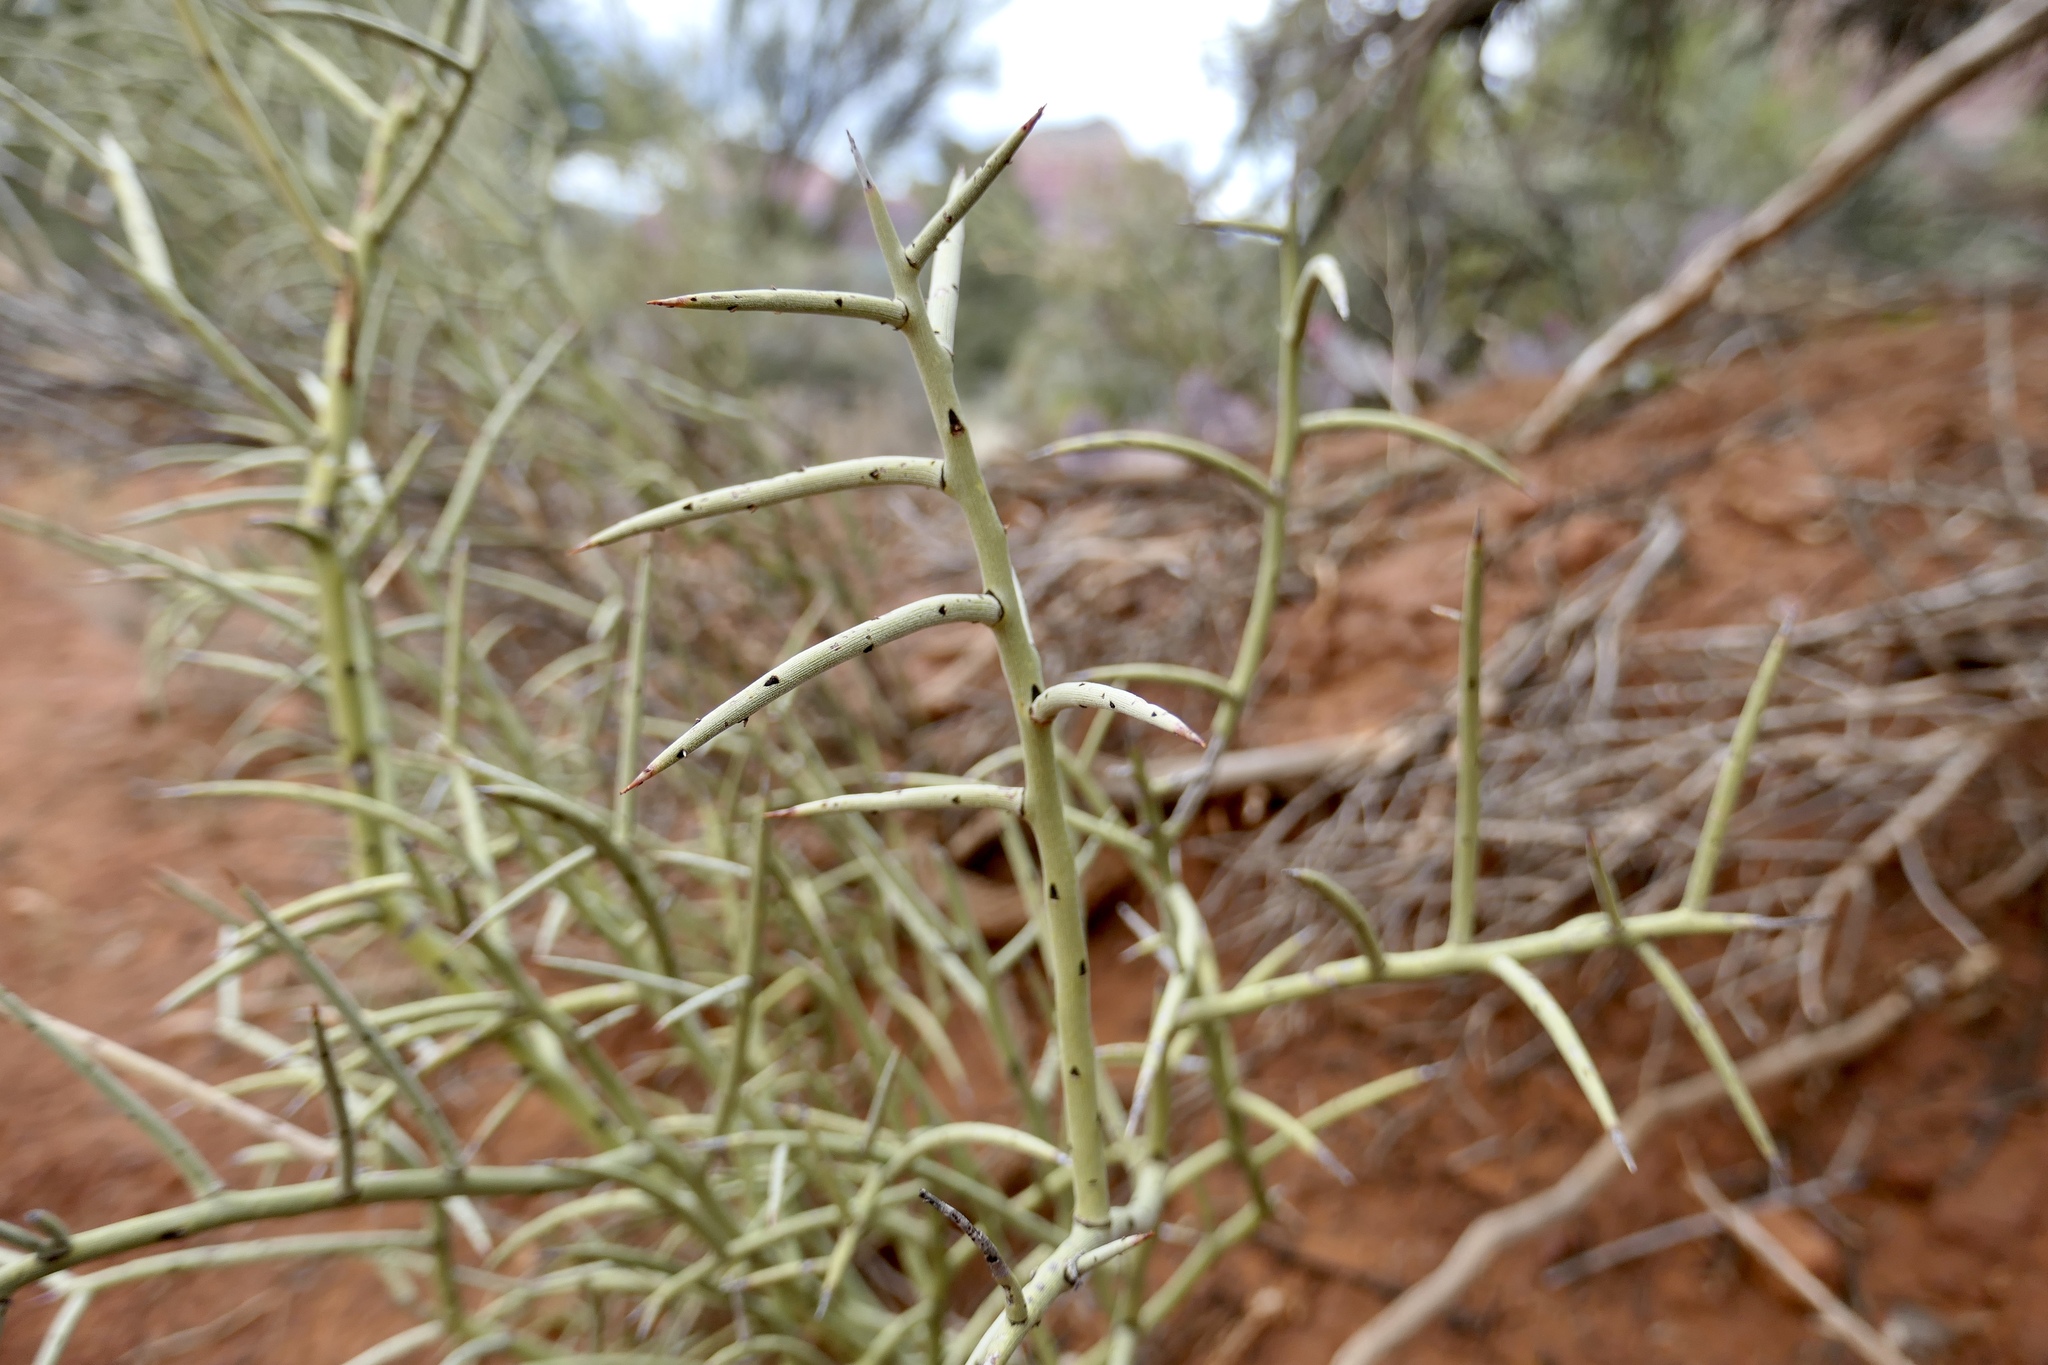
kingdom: Plantae
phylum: Tracheophyta
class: Magnoliopsida
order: Celastrales
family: Celastraceae
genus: Canotia
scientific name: Canotia holacantha
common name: Crucifixion thorns
